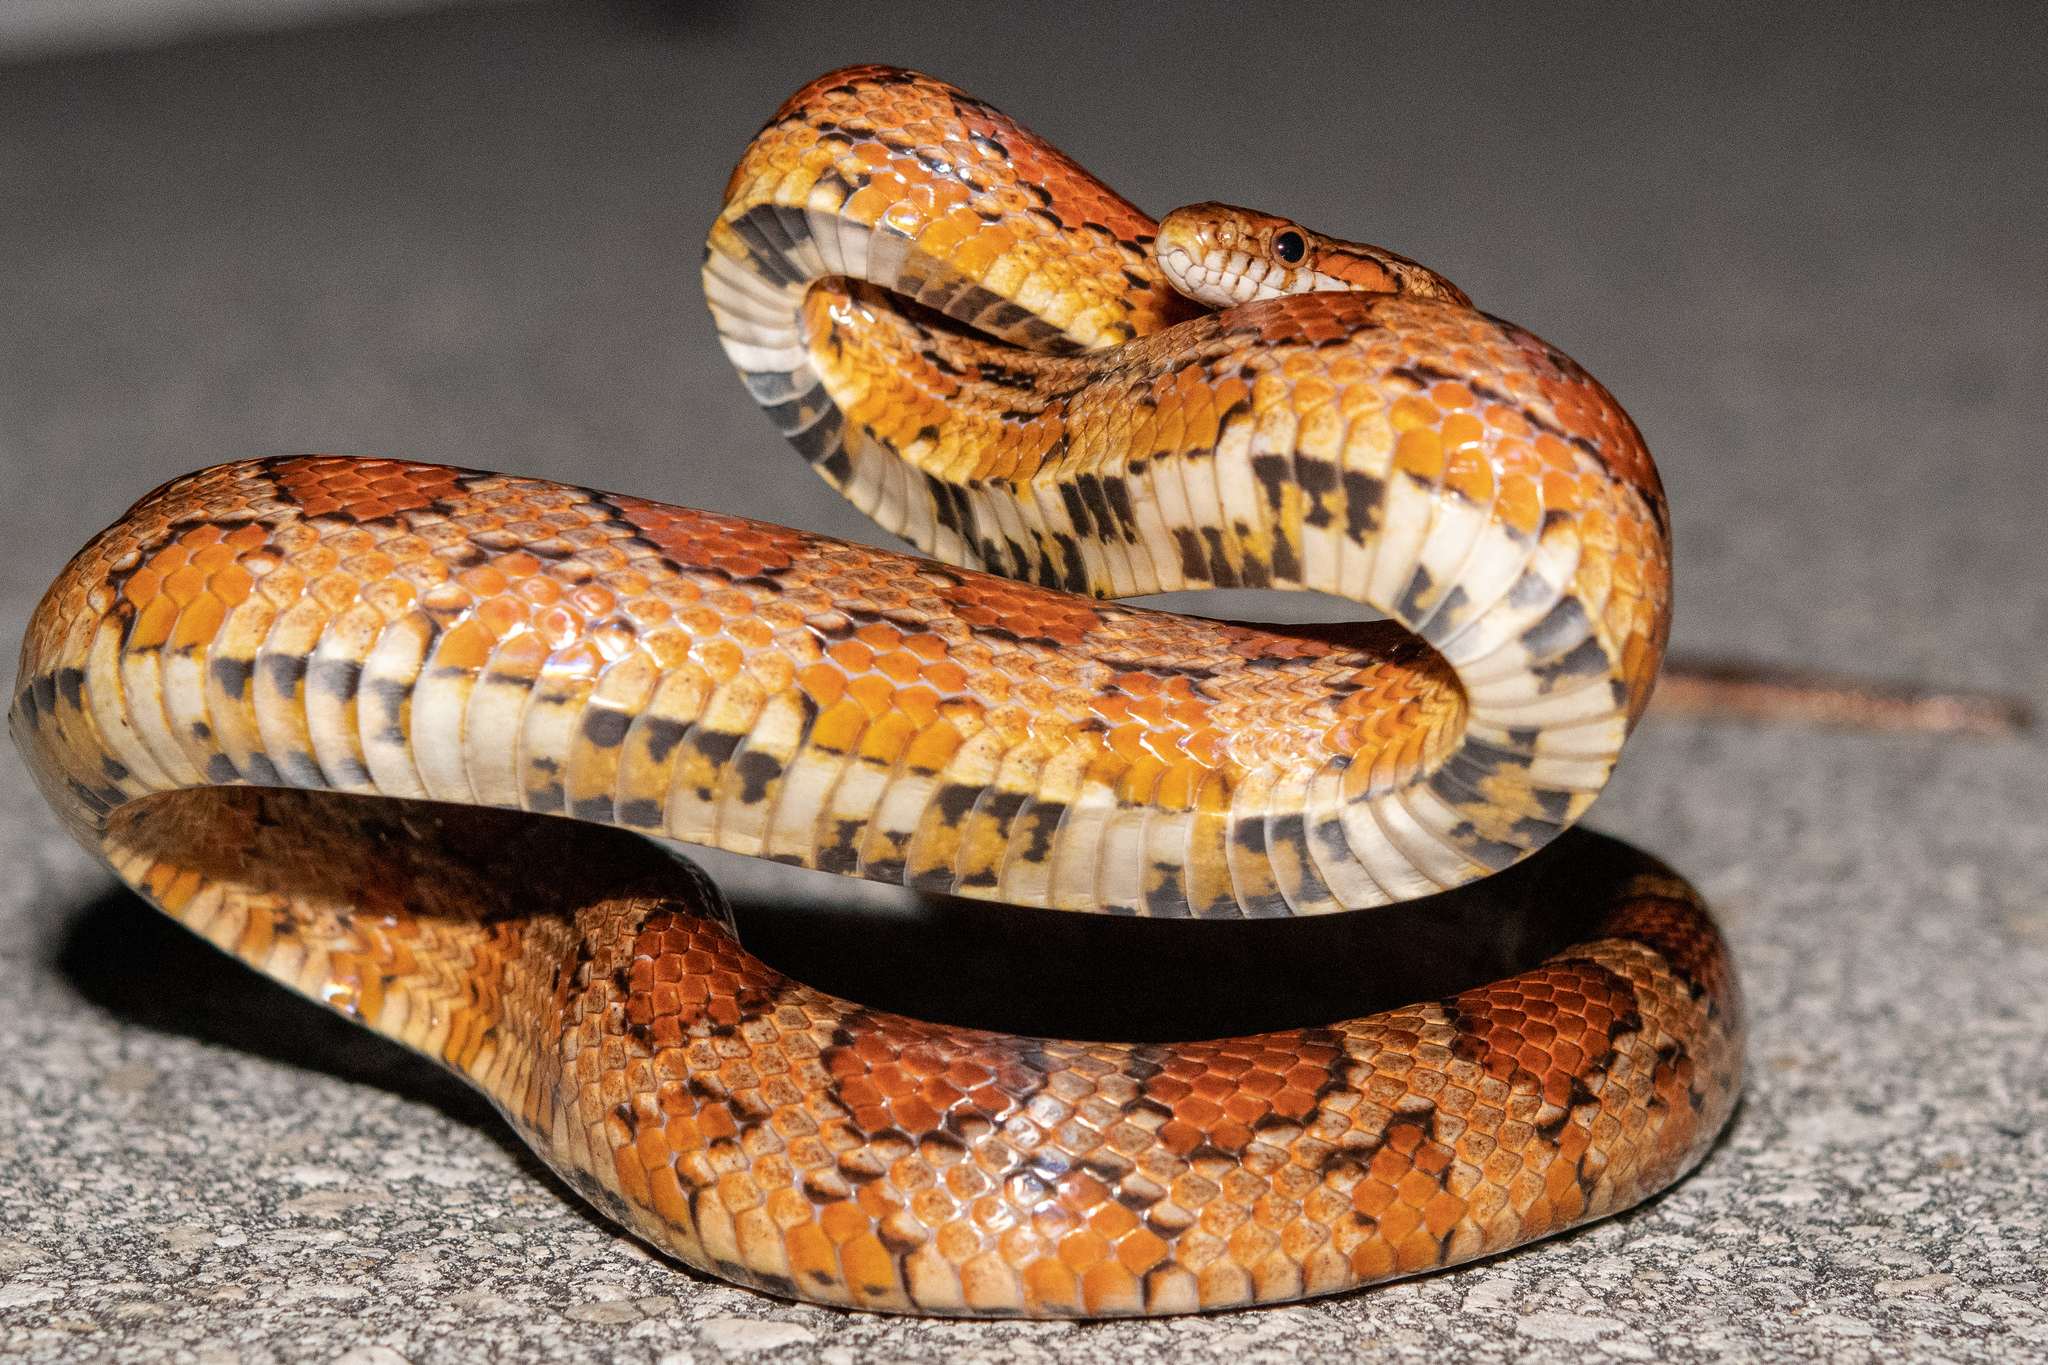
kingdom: Animalia
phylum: Chordata
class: Squamata
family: Colubridae
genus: Pantherophis
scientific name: Pantherophis guttatus
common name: Red cornsnake
